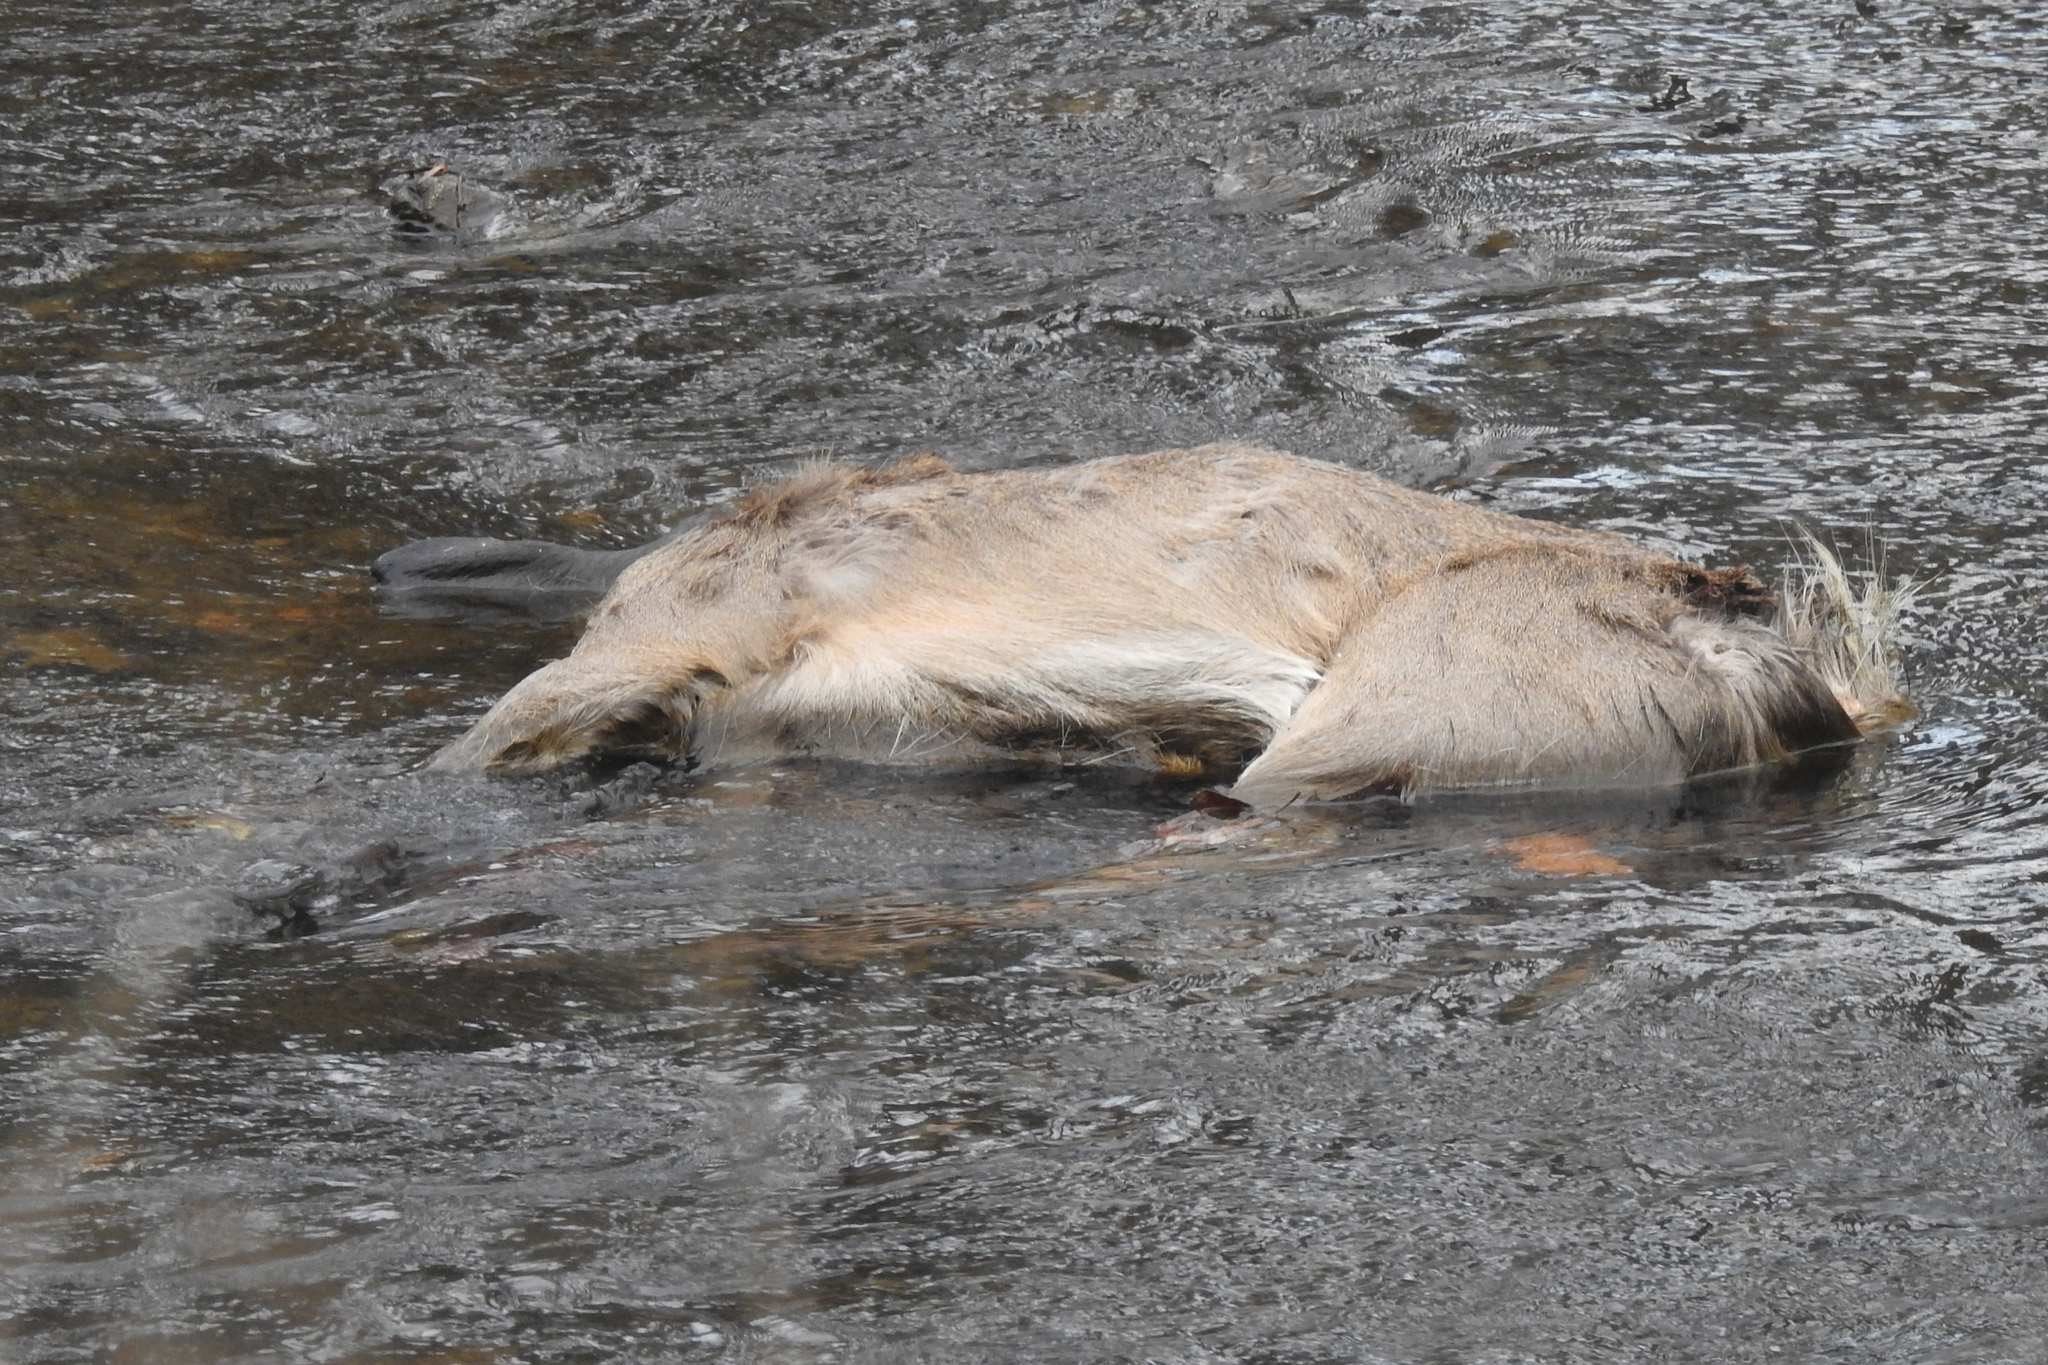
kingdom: Animalia
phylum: Chordata
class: Mammalia
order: Artiodactyla
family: Cervidae
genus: Odocoileus
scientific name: Odocoileus virginianus
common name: White-tailed deer
